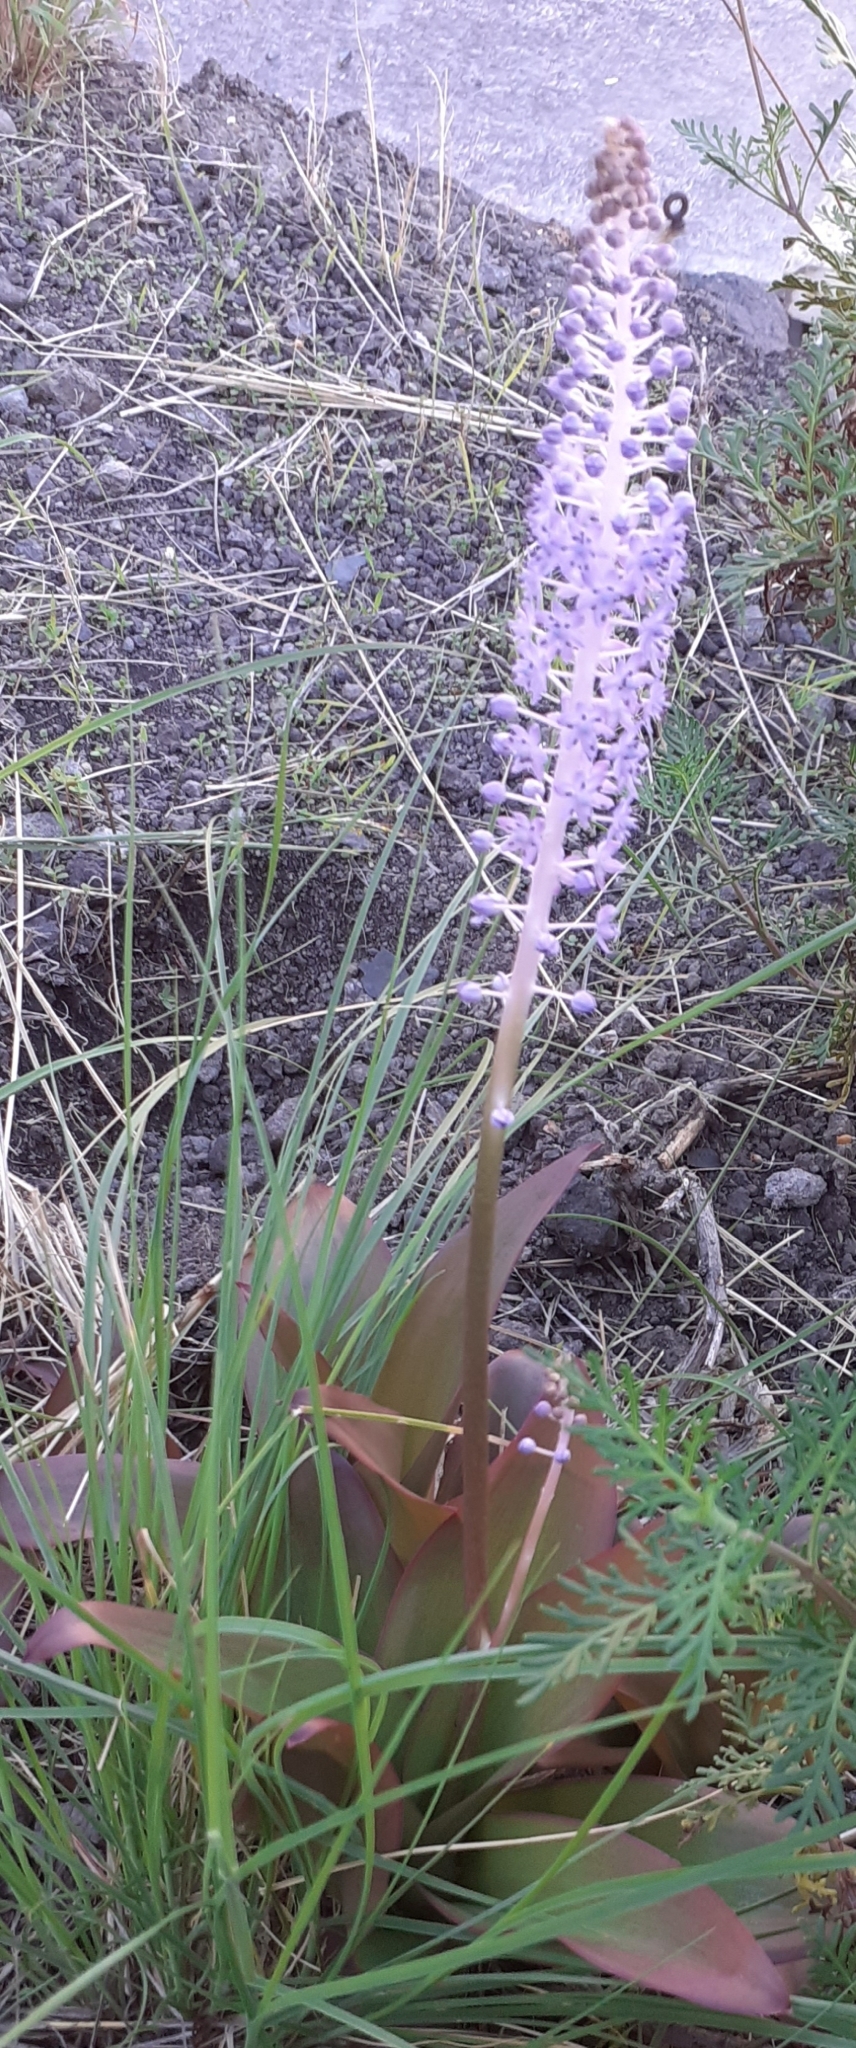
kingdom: Plantae
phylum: Tracheophyta
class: Liliopsida
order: Asparagales
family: Asparagaceae
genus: Scilla
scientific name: Scilla latifolia
